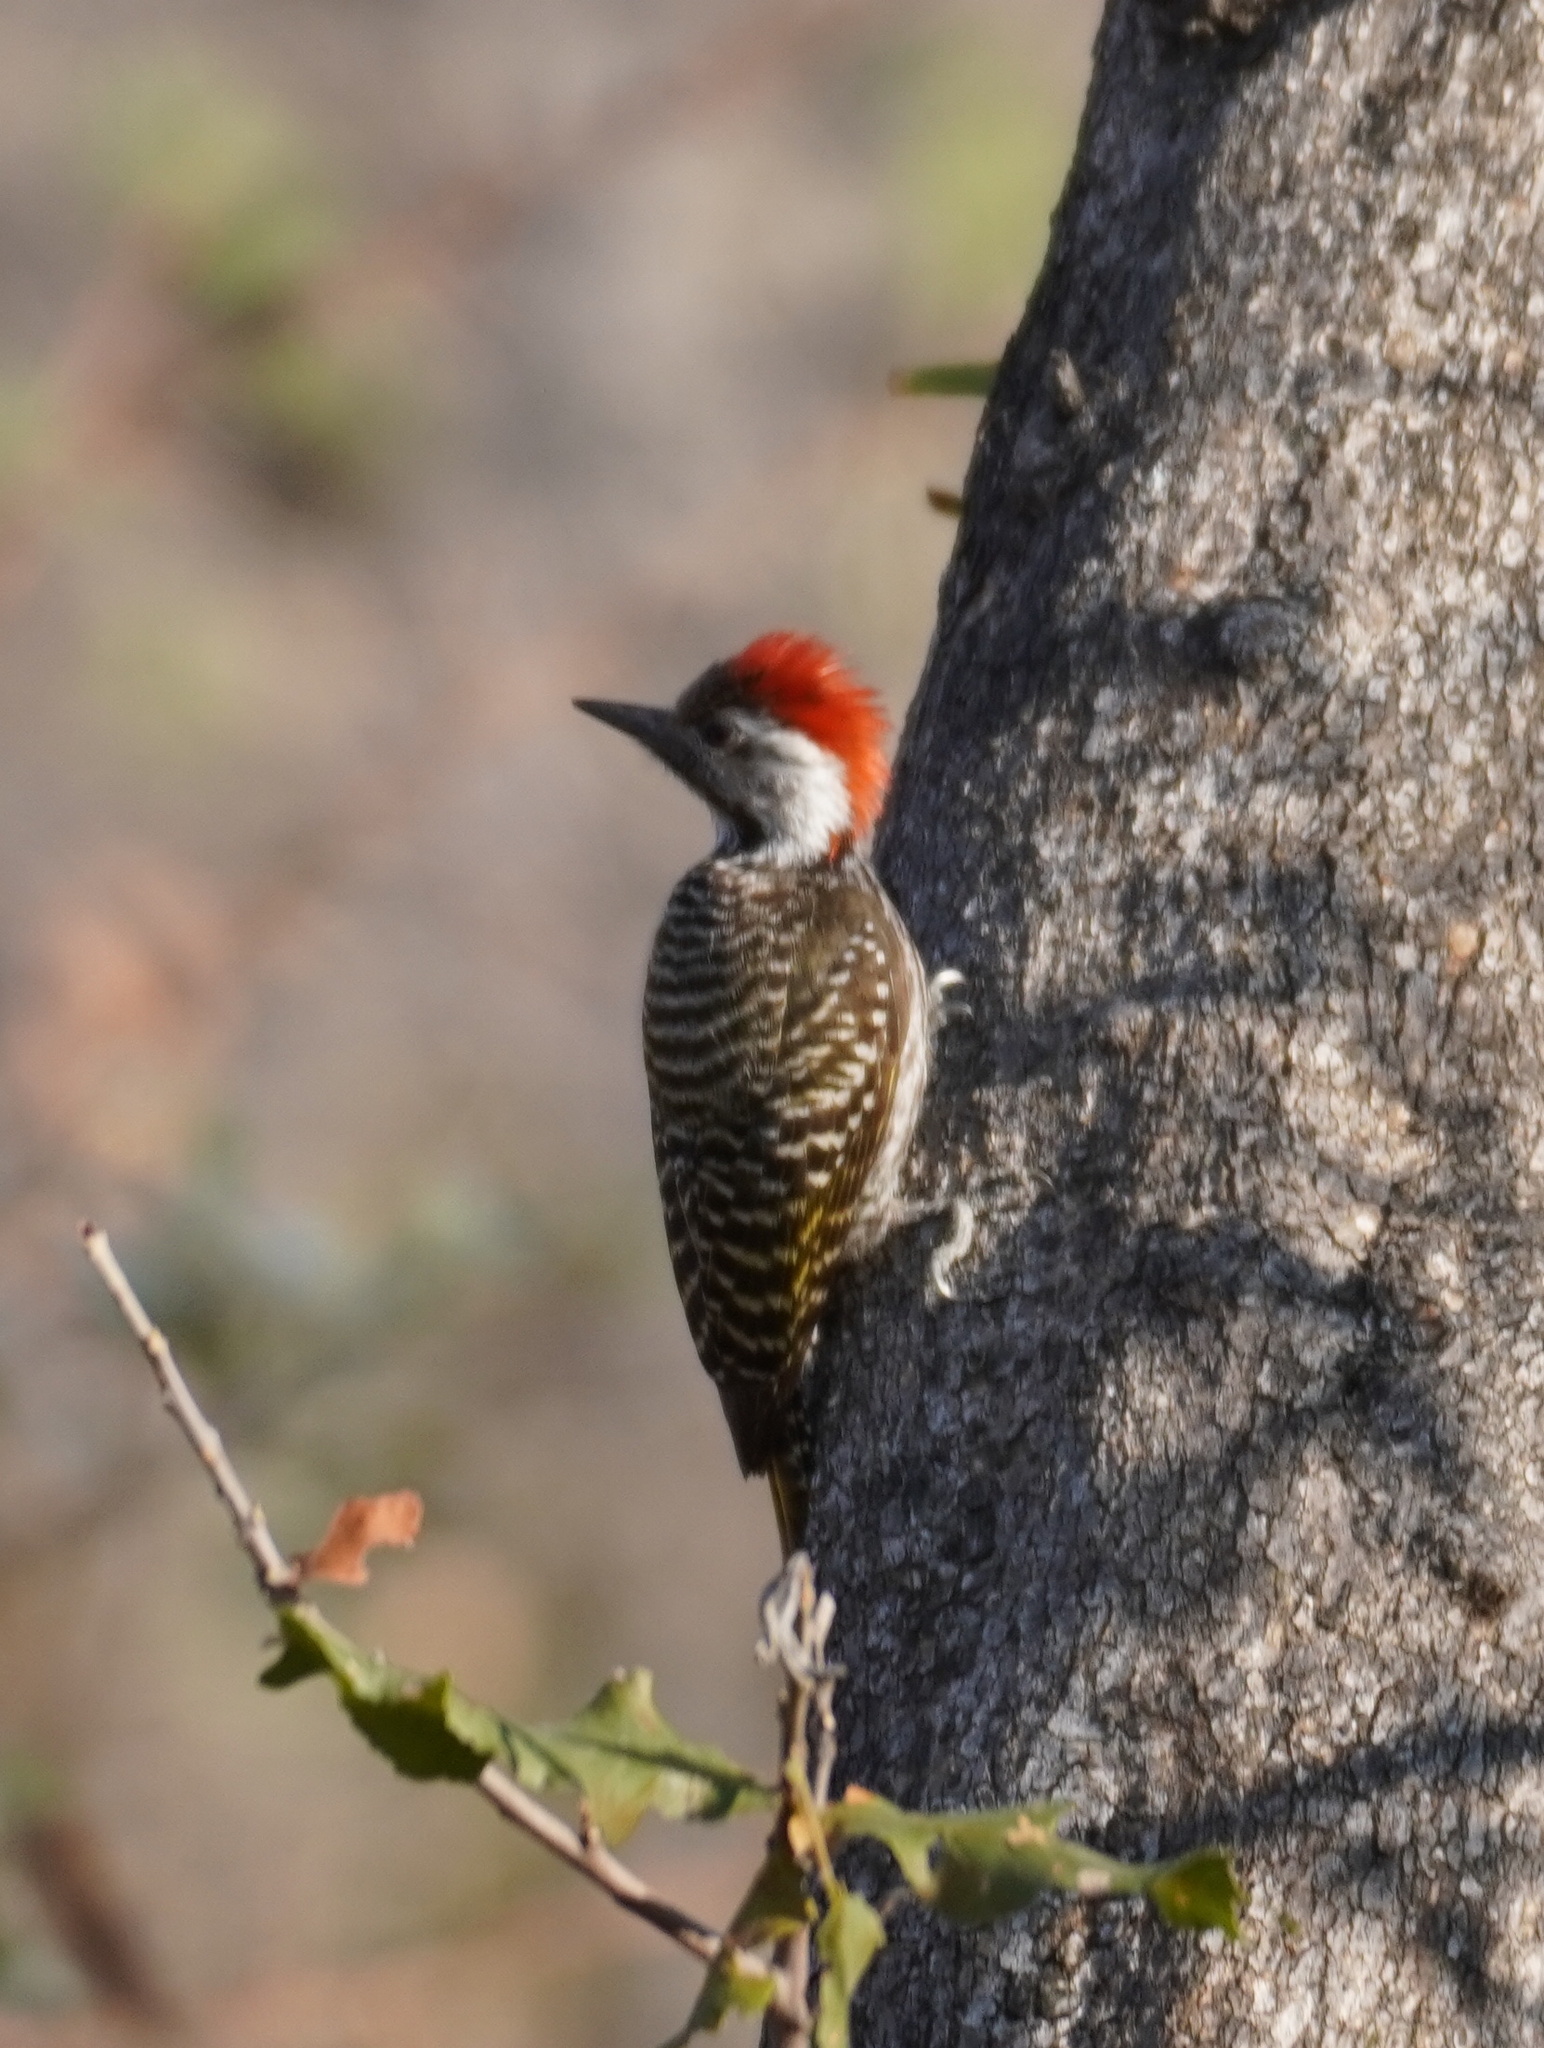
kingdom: Animalia
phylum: Chordata
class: Aves
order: Piciformes
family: Picidae
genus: Dendropicos
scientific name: Dendropicos fuscescens
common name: Cardinal woodpecker
